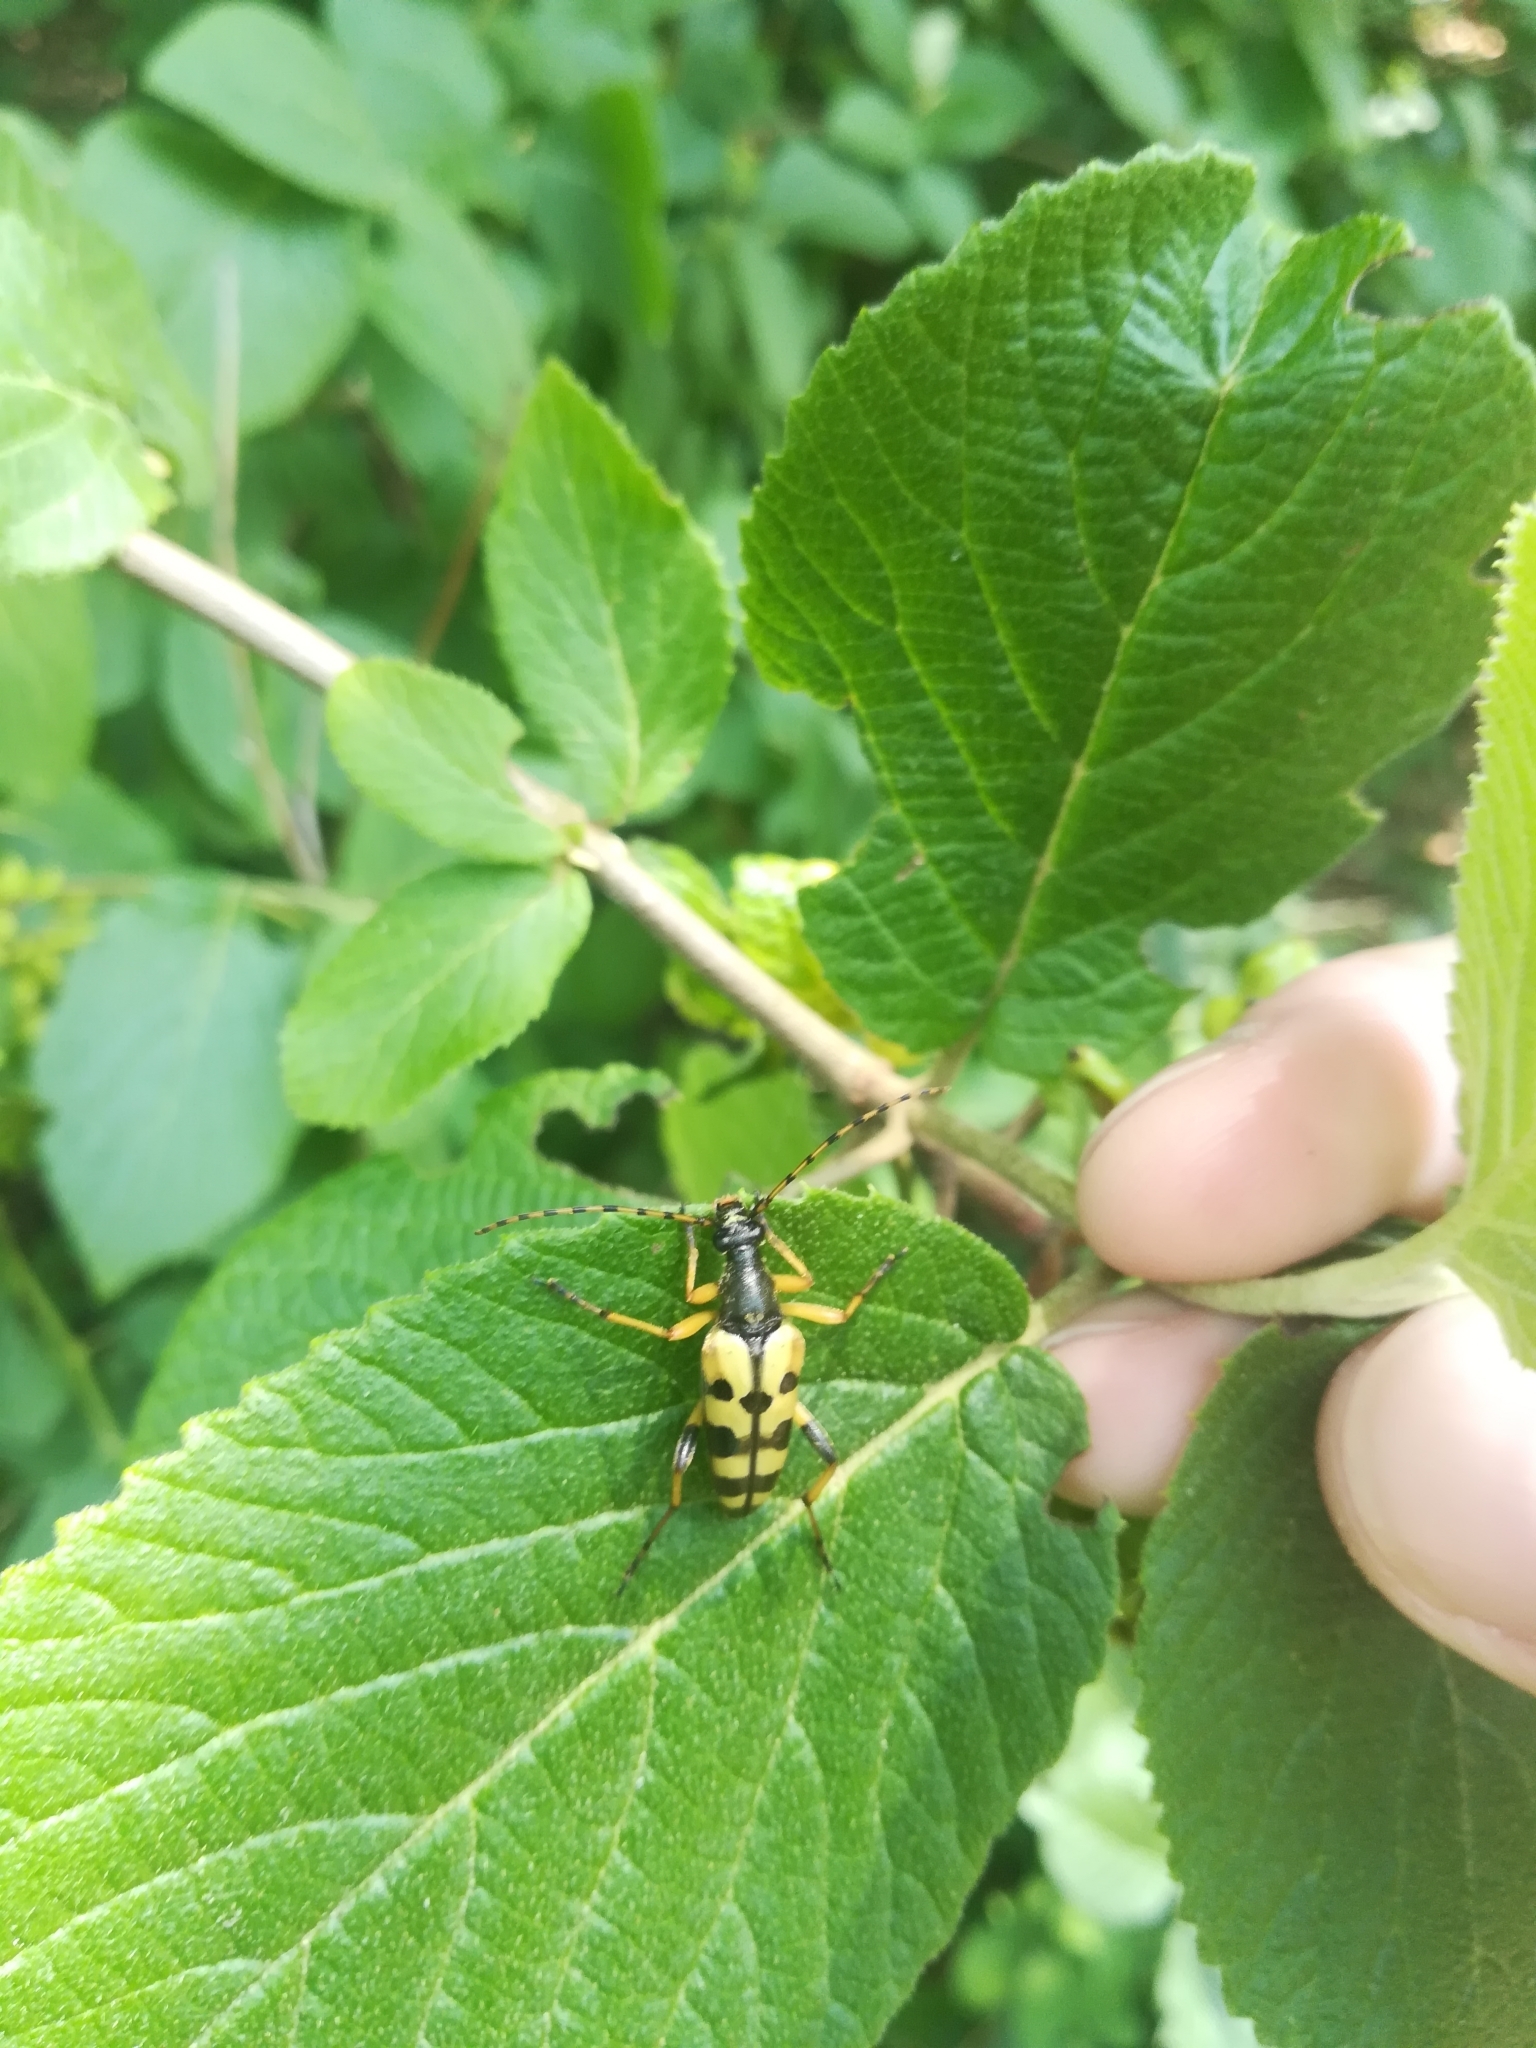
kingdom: Animalia
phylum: Arthropoda
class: Insecta
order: Coleoptera
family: Cerambycidae
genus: Rutpela
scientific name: Rutpela maculata
